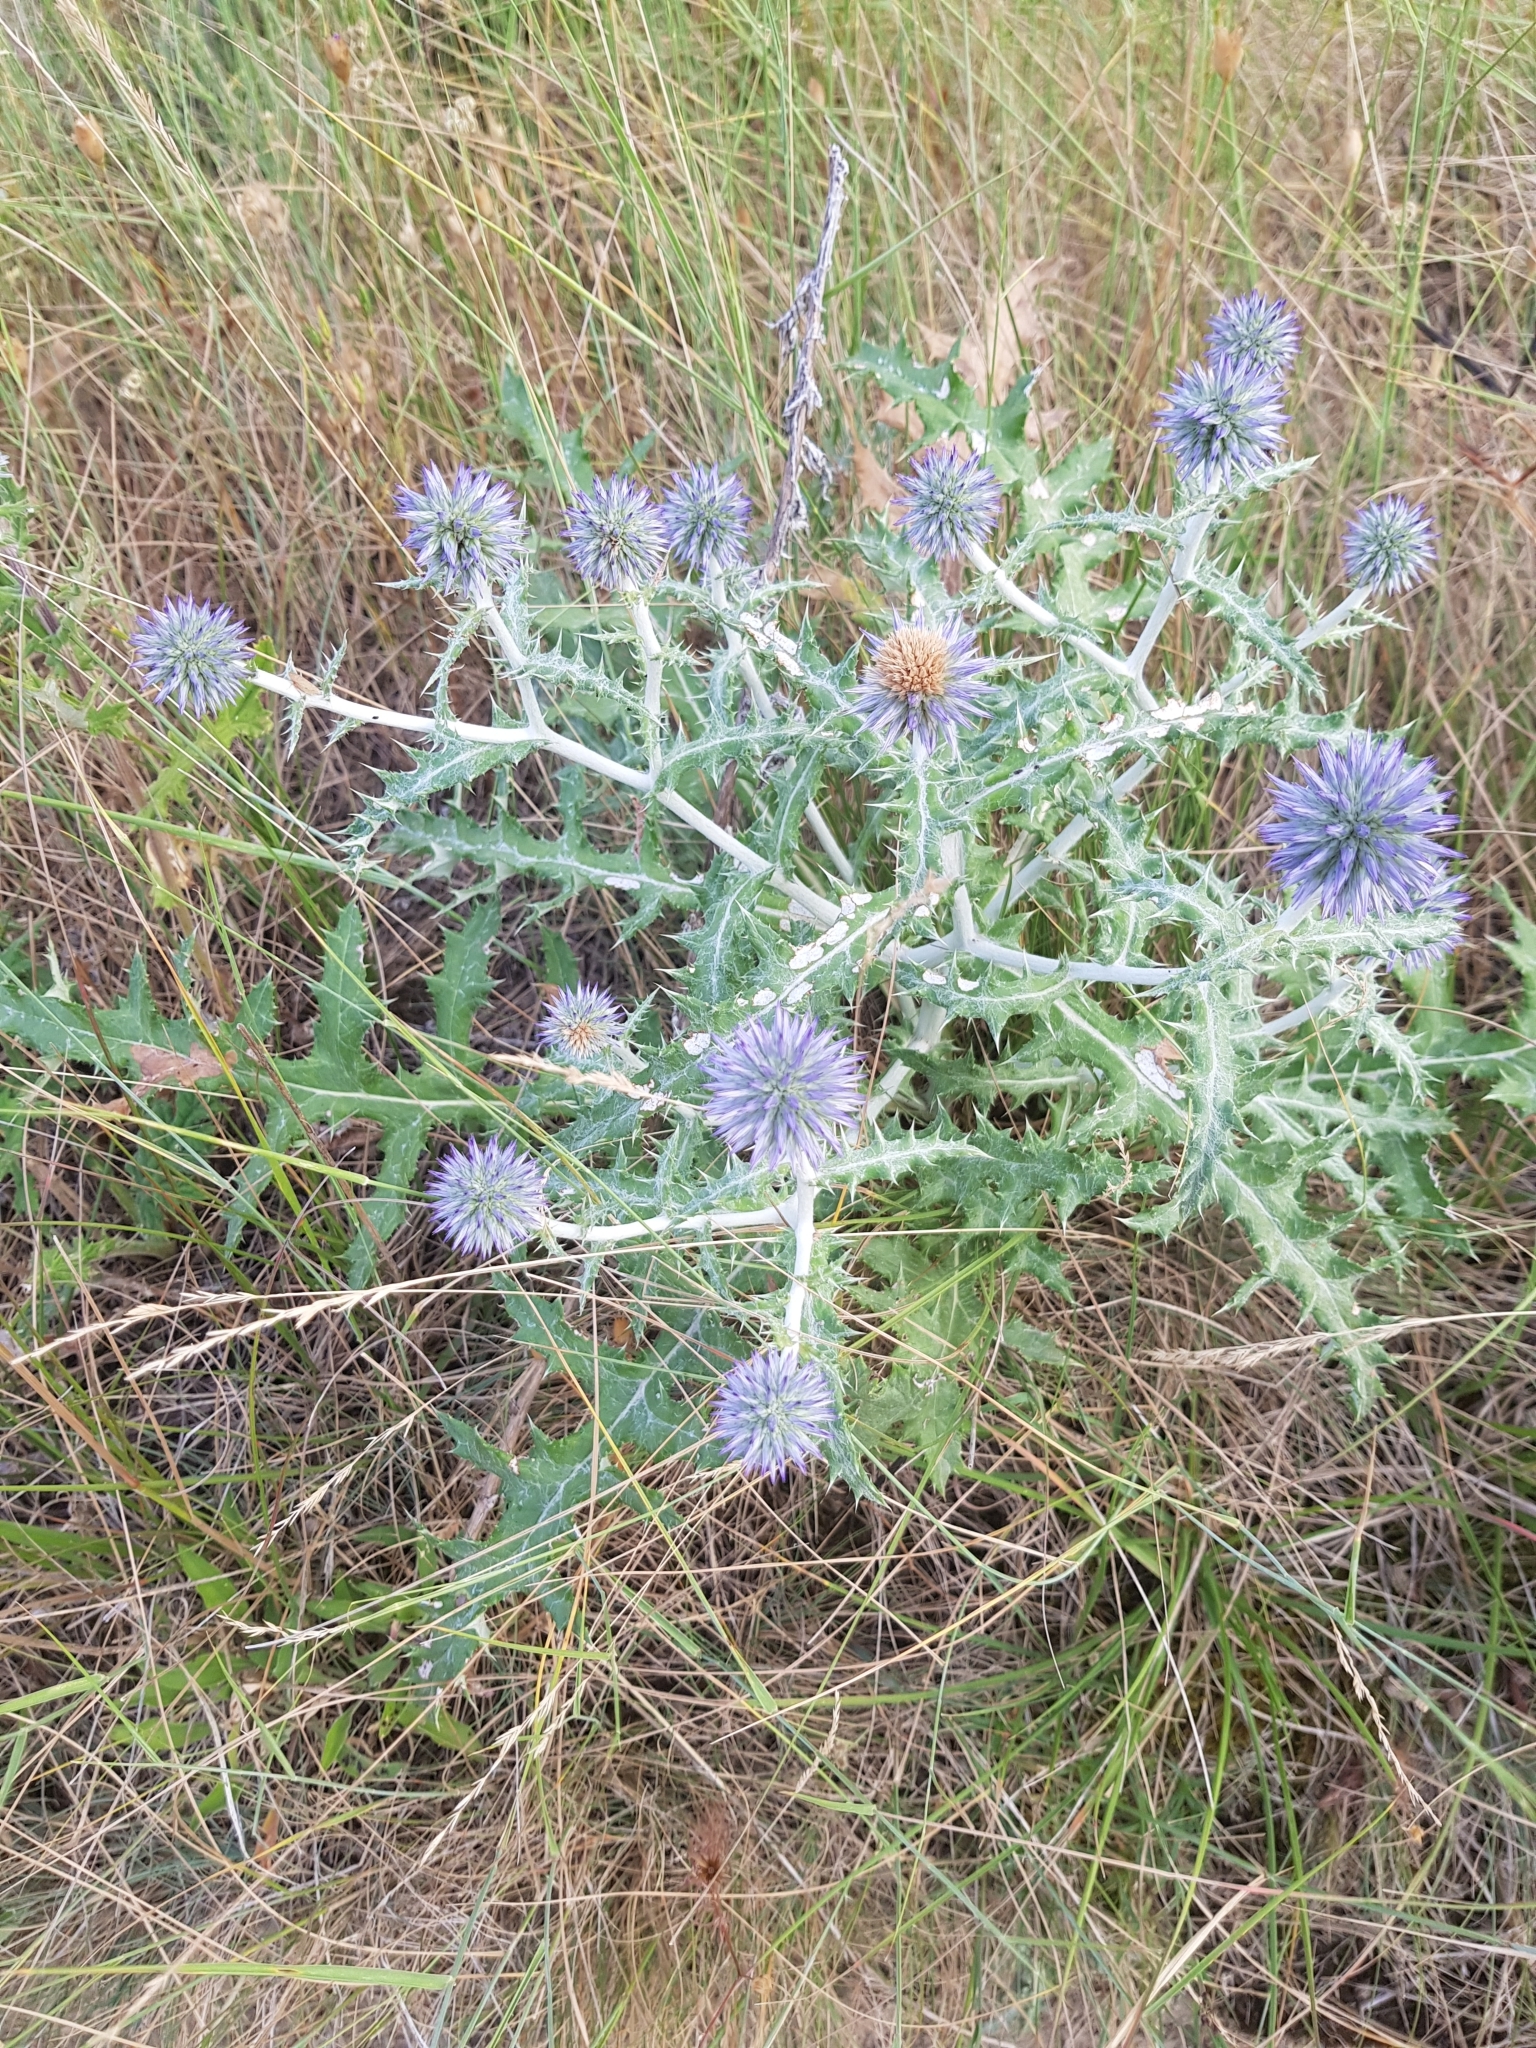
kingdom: Plantae
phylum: Tracheophyta
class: Magnoliopsida
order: Asterales
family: Asteraceae
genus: Echinops
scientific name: Echinops ritro
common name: Globe thistle
